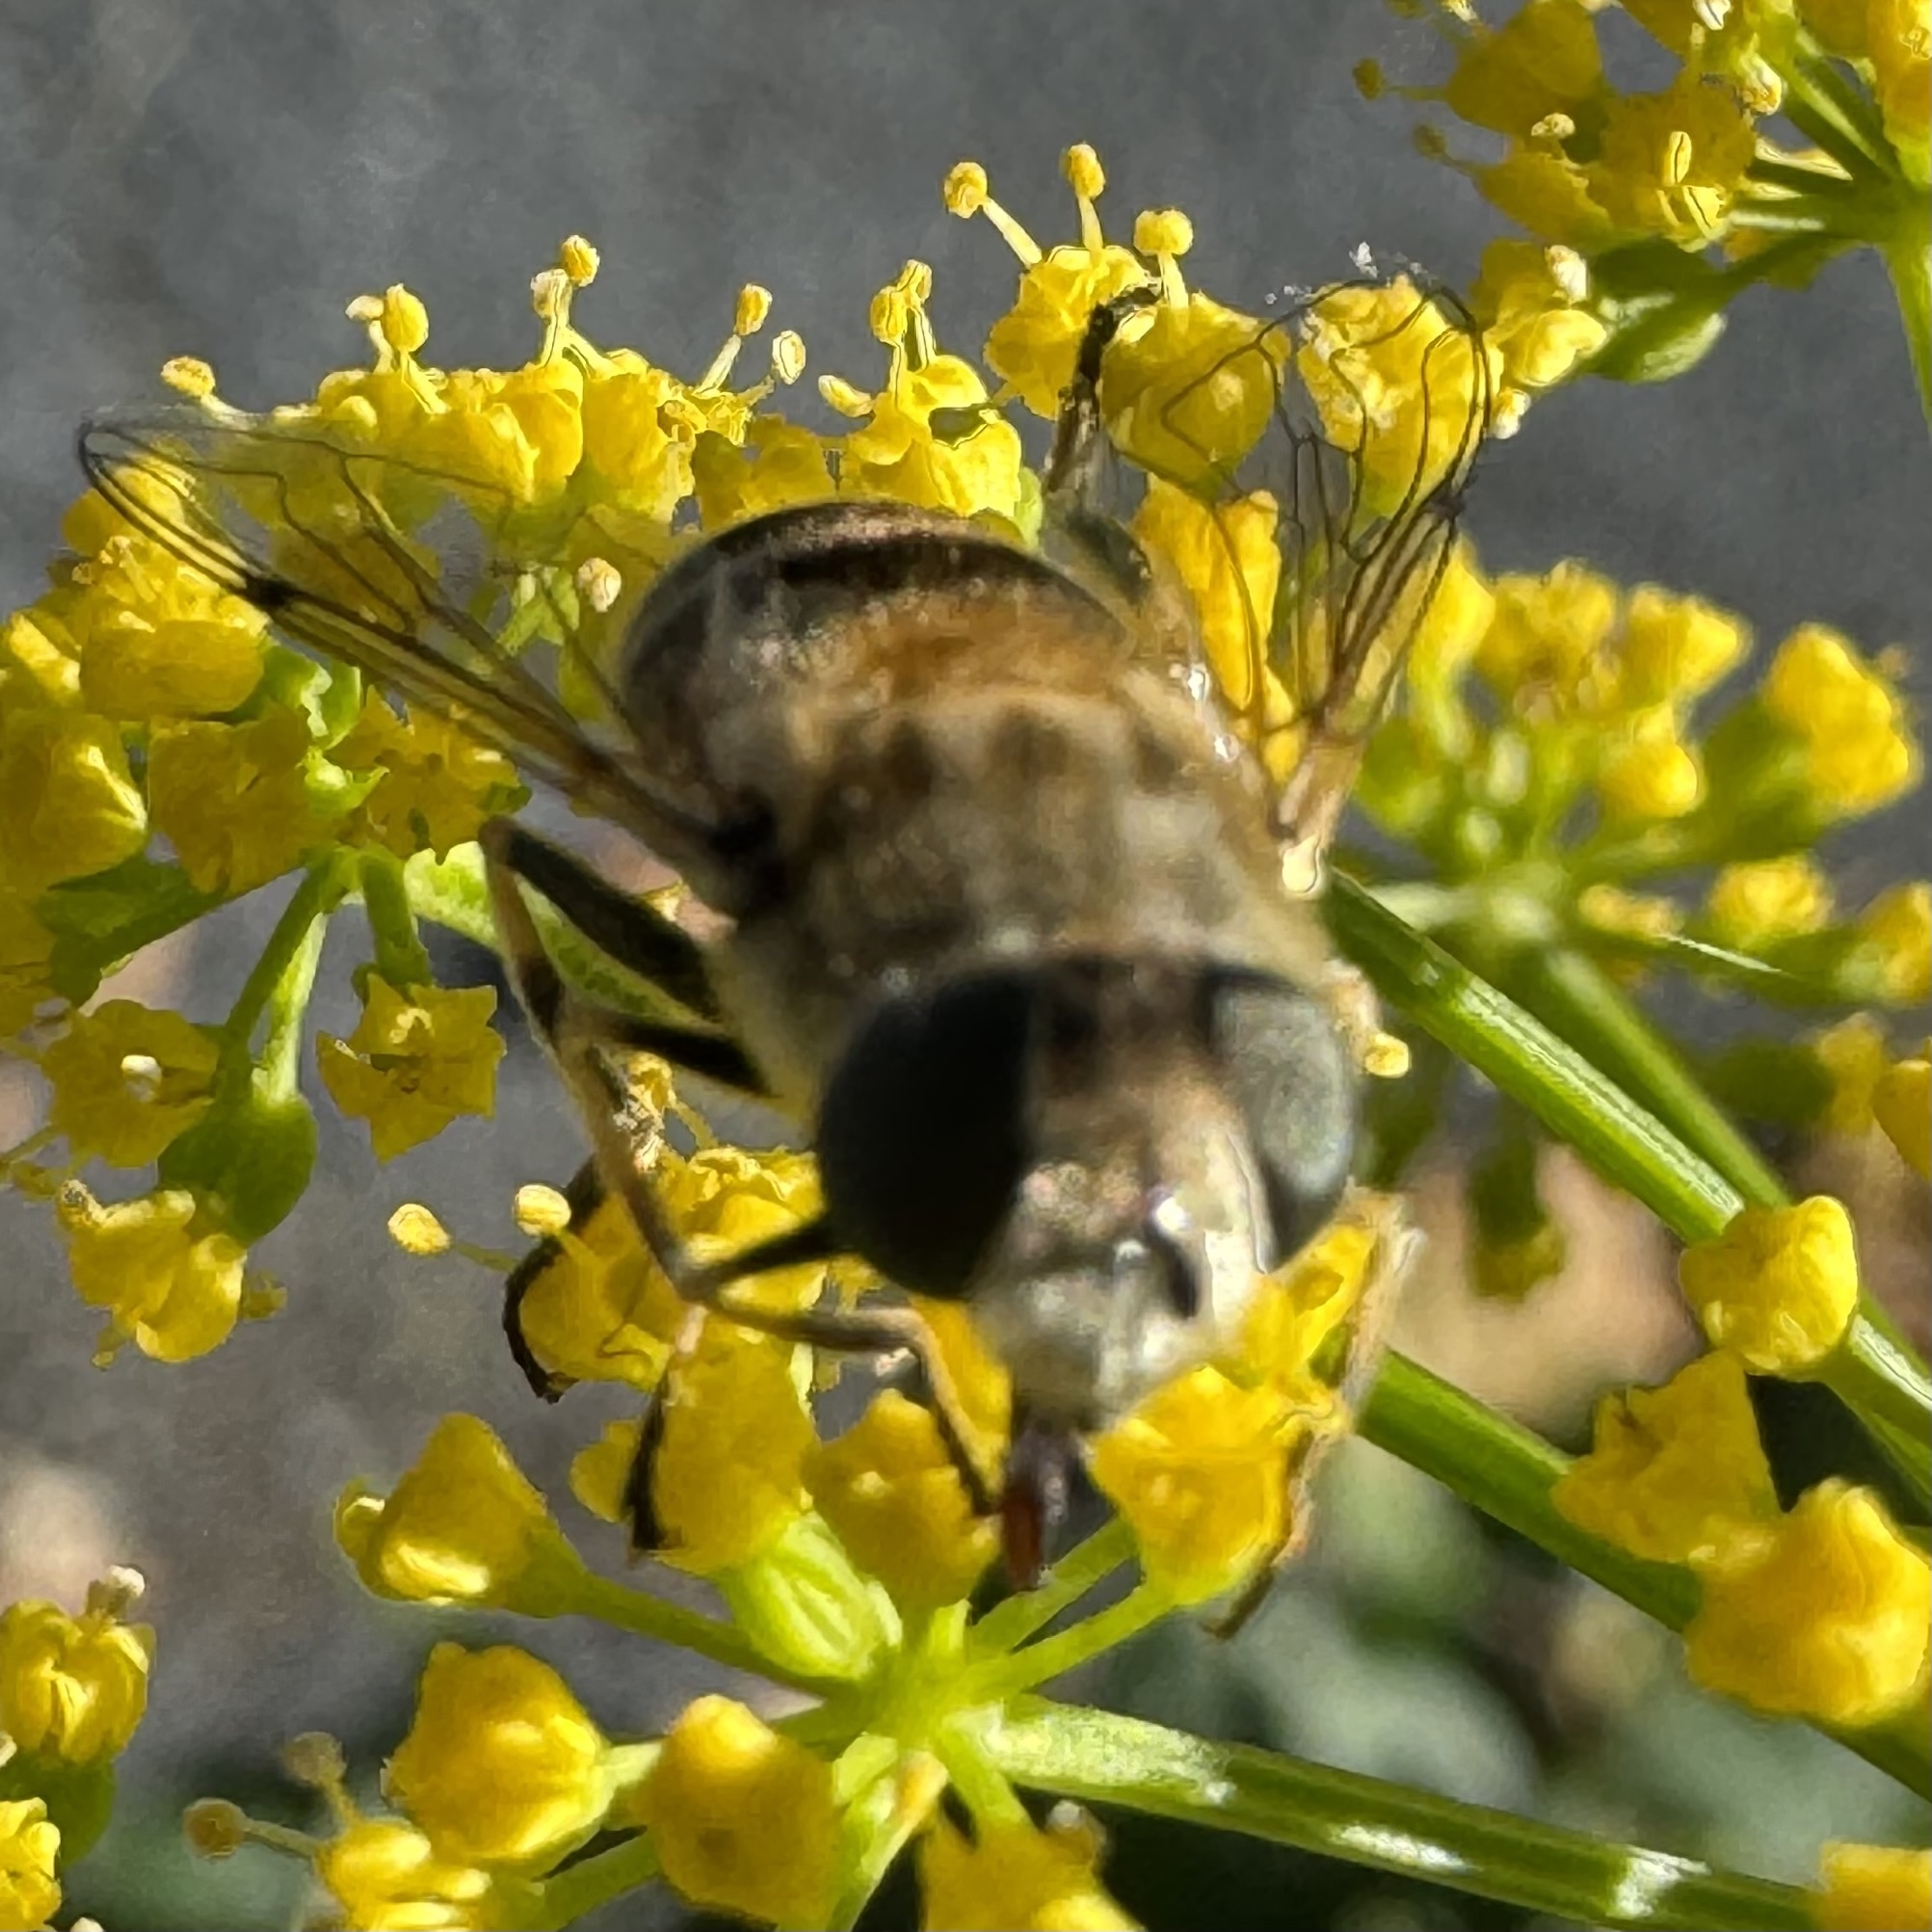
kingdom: Animalia
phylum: Arthropoda
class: Insecta
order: Diptera
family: Syrphidae
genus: Eristalis
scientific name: Eristalis arbustorum
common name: Hover fly
